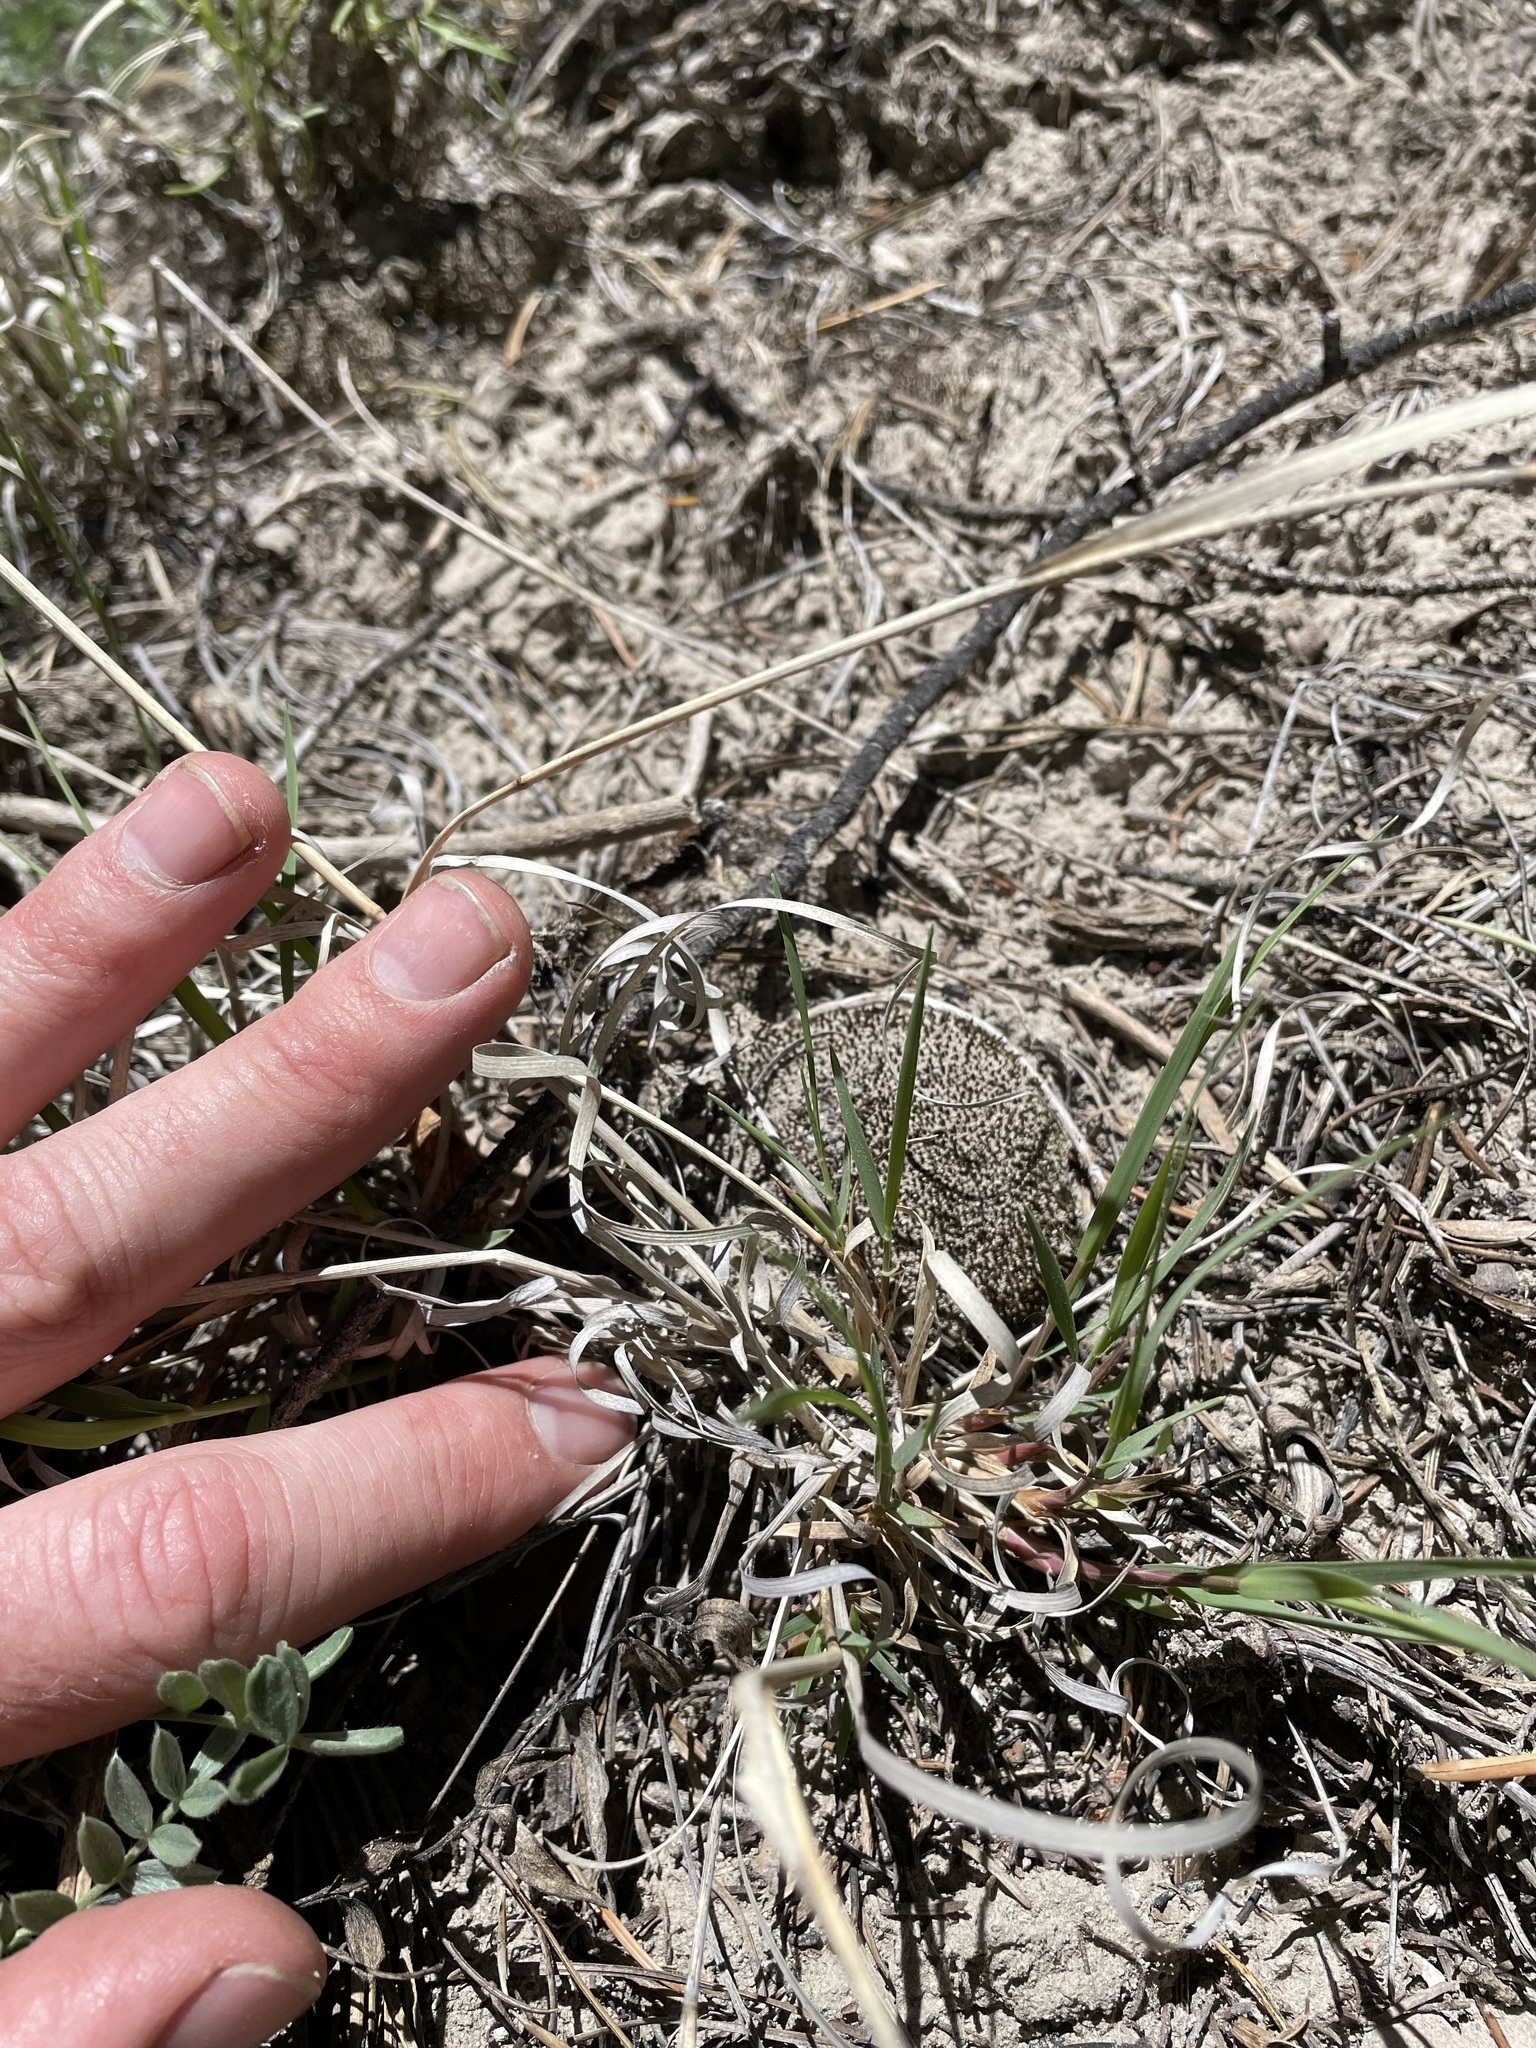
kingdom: Plantae
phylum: Tracheophyta
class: Liliopsida
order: Poales
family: Poaceae
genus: Bouteloua
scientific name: Bouteloua gracilis
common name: Blue grama
